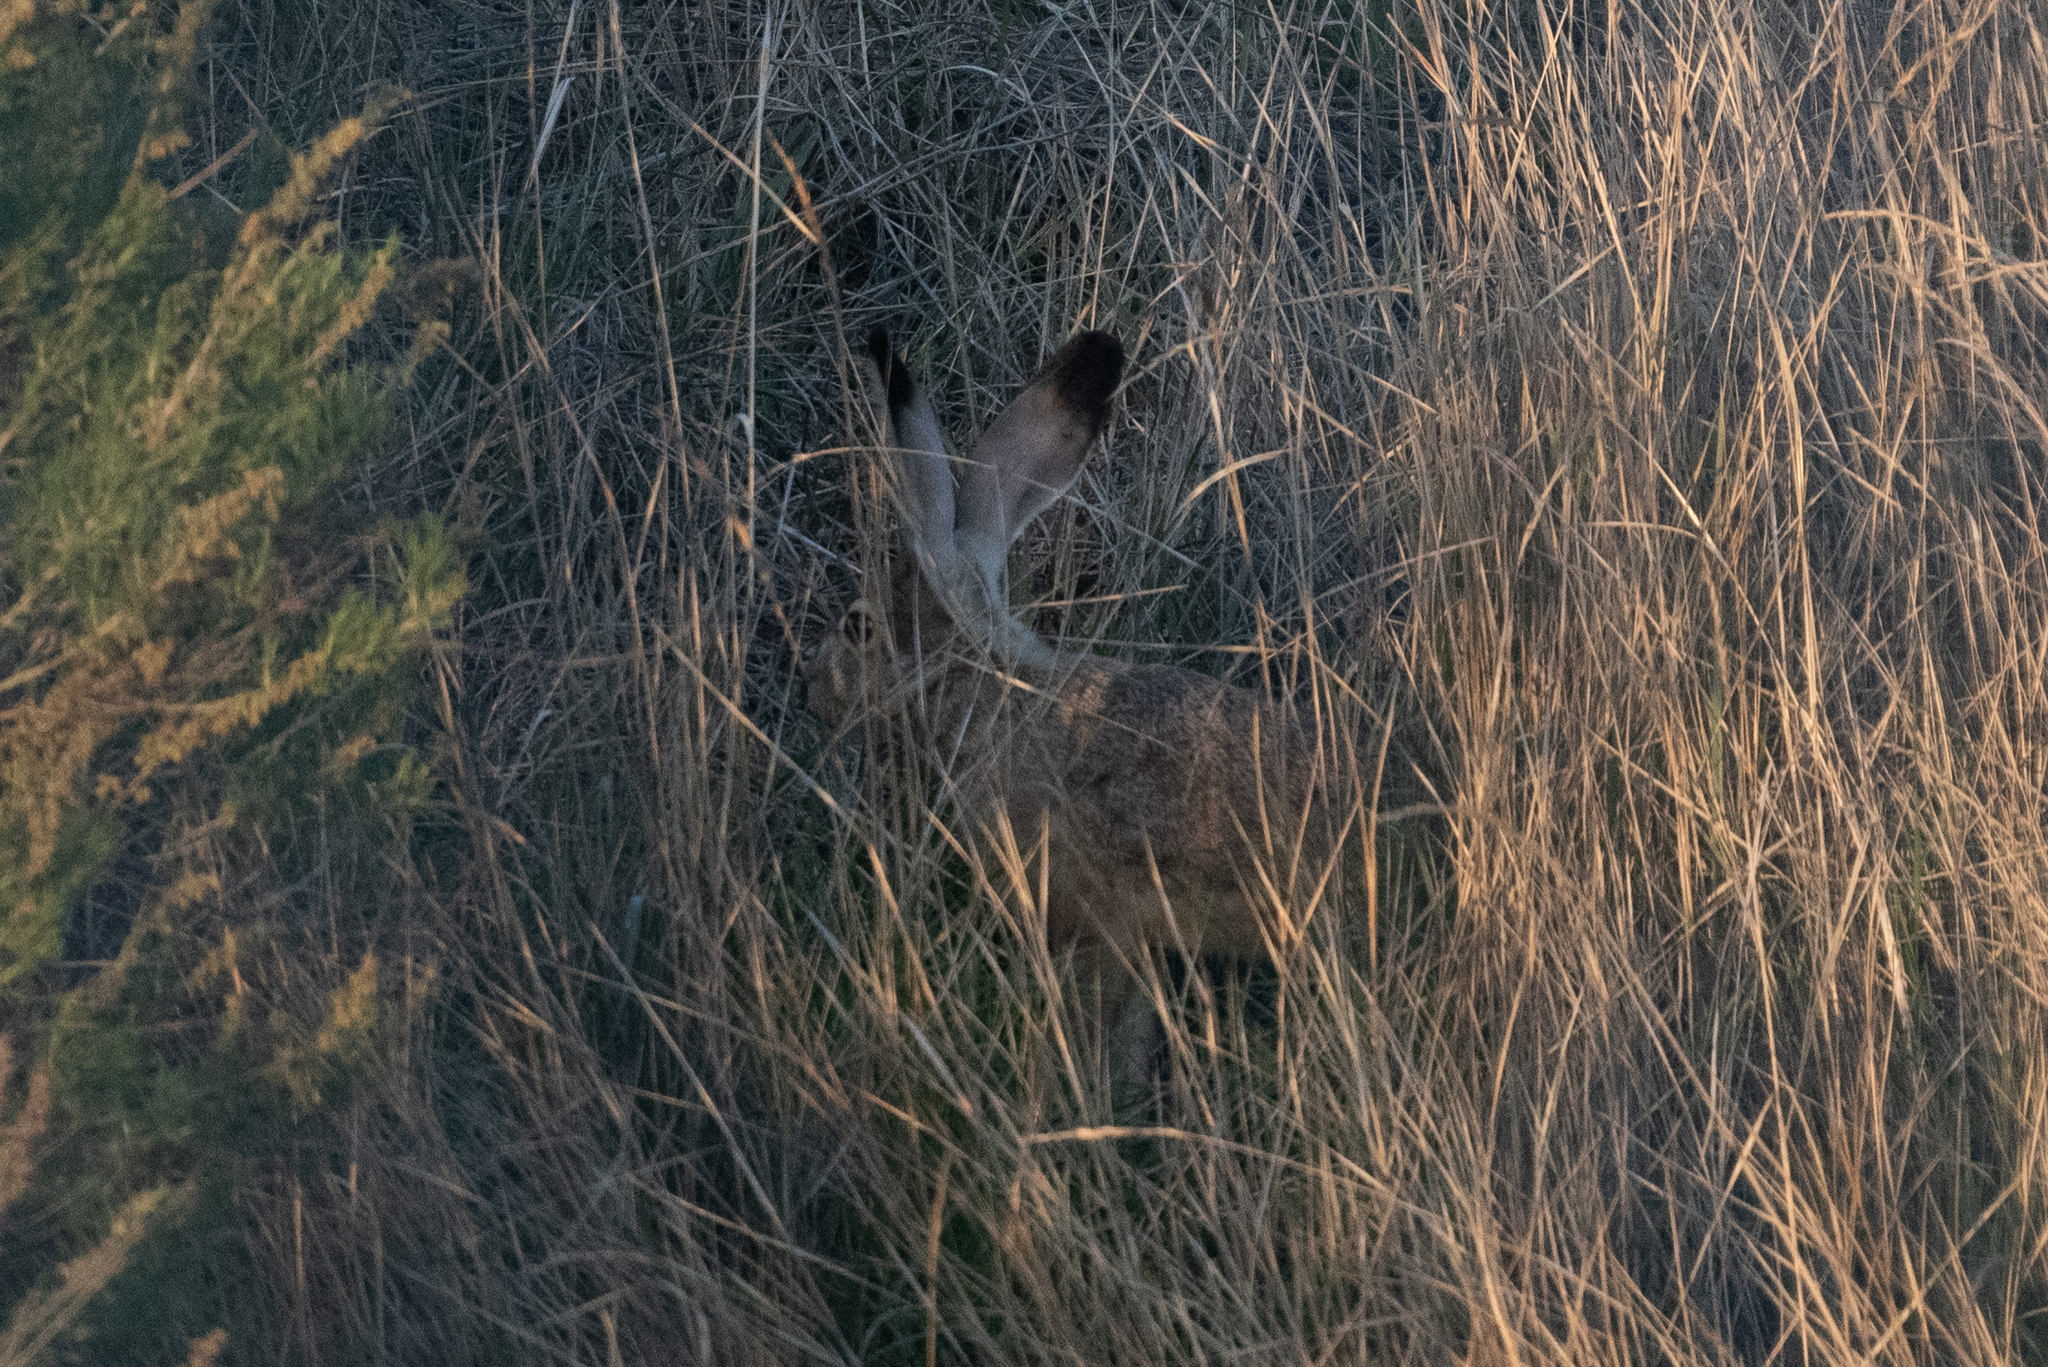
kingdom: Animalia
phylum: Chordata
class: Mammalia
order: Lagomorpha
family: Leporidae
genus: Lepus
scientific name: Lepus californicus
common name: Black-tailed jackrabbit
